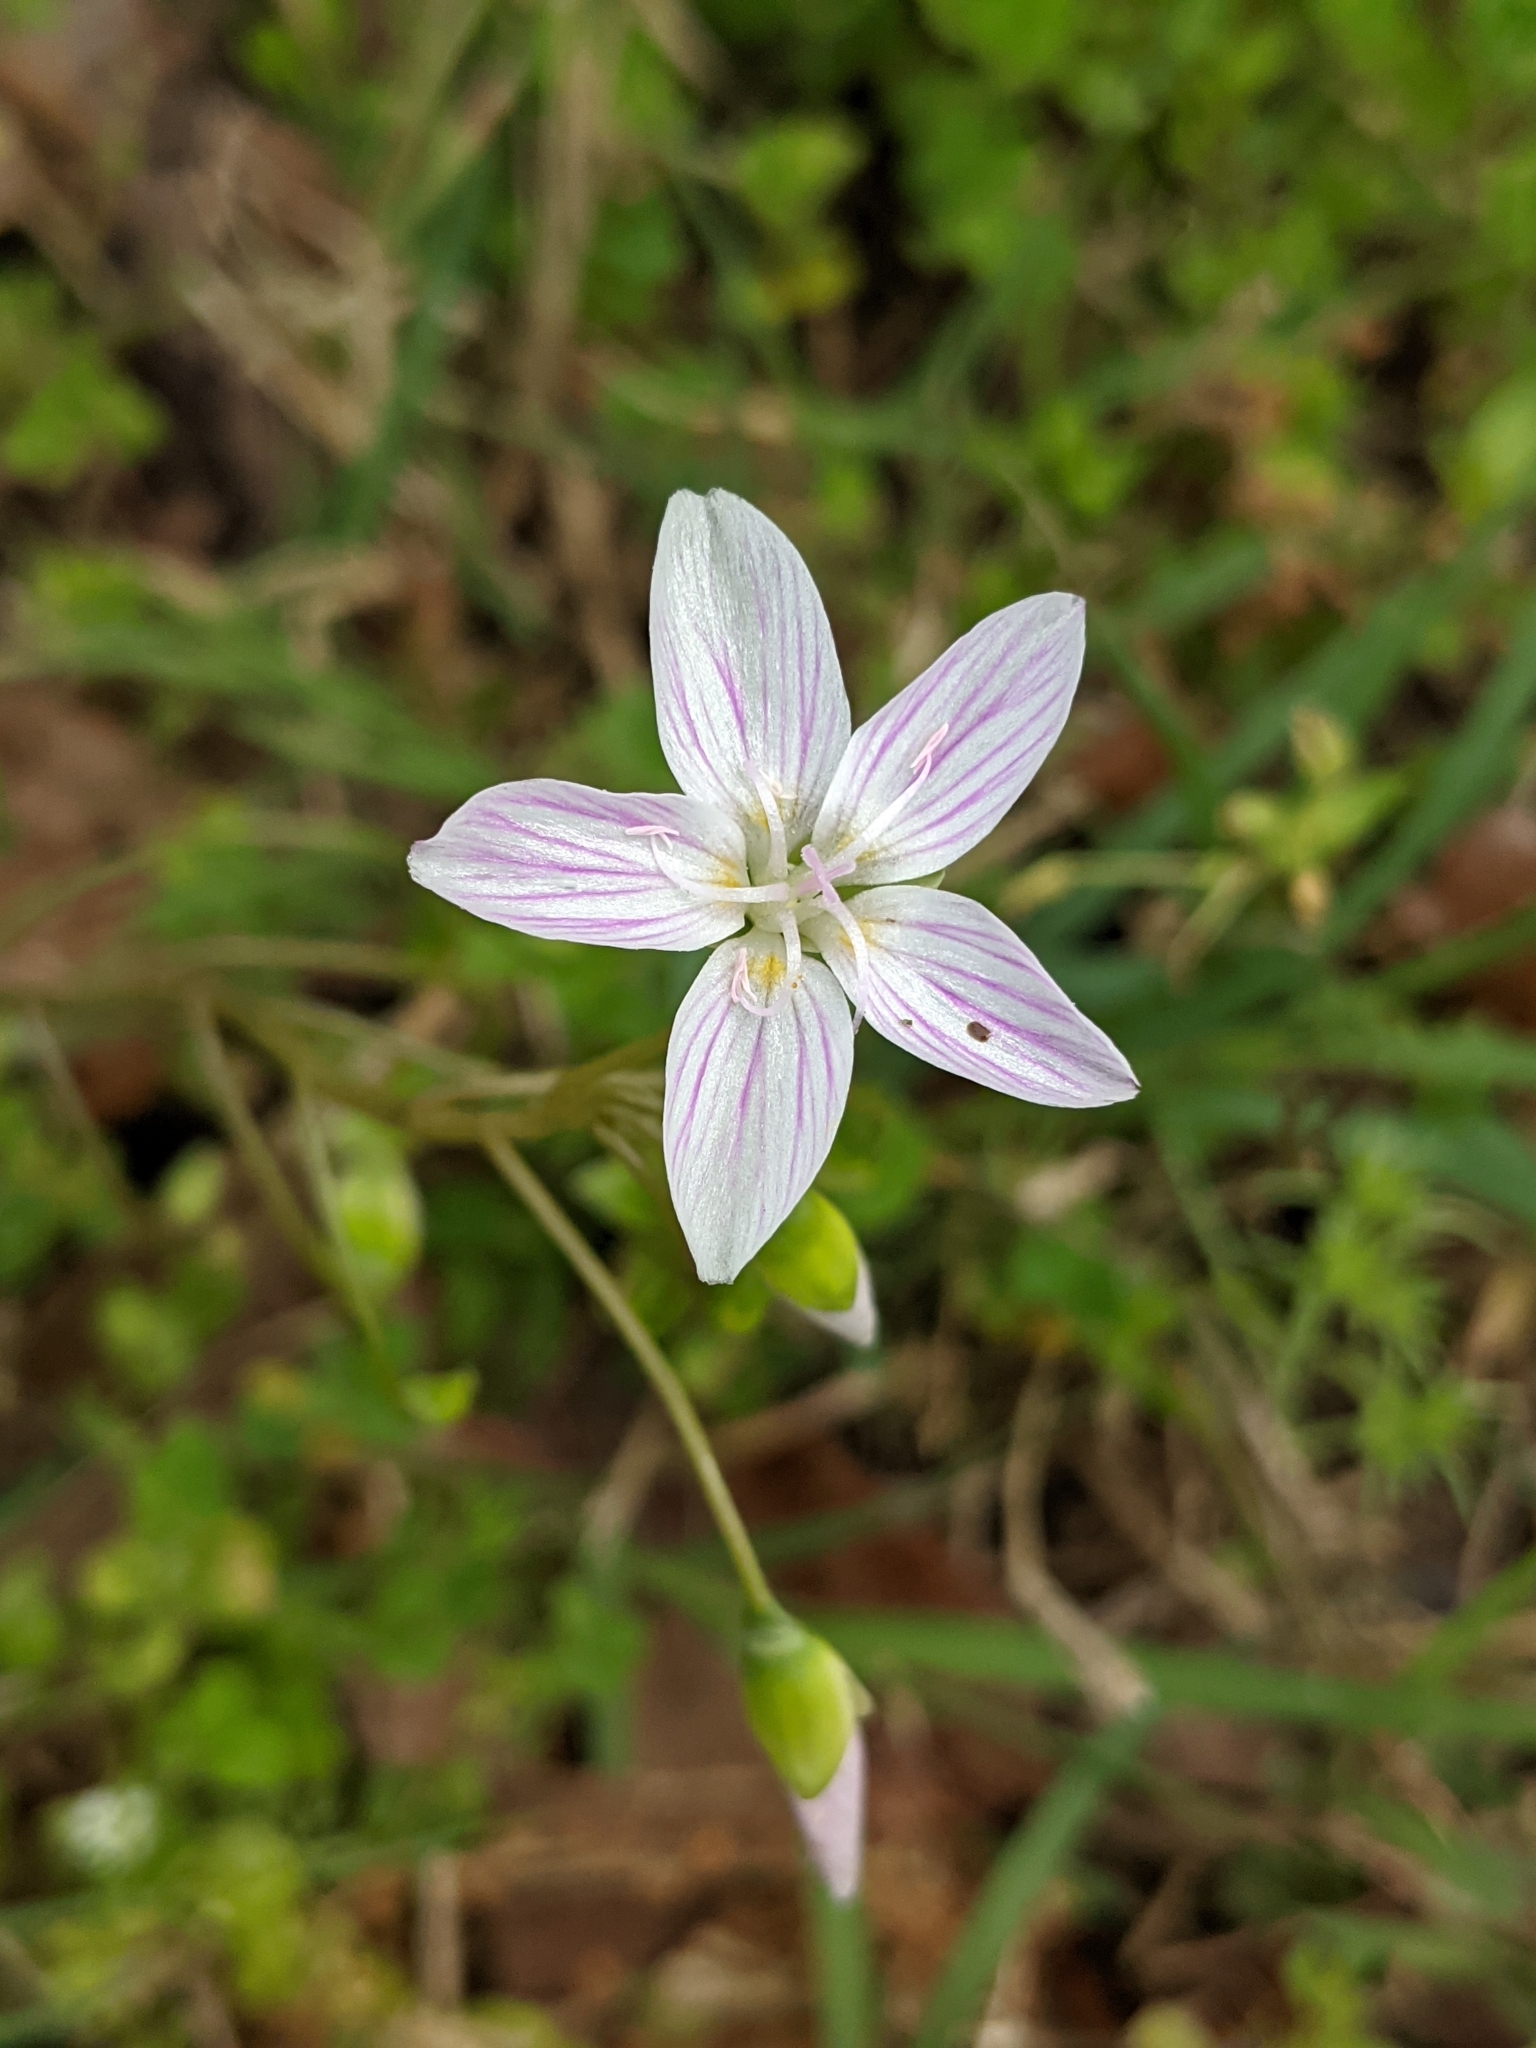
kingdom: Plantae
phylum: Tracheophyta
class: Magnoliopsida
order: Caryophyllales
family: Montiaceae
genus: Claytonia
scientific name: Claytonia virginica
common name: Virginia springbeauty
